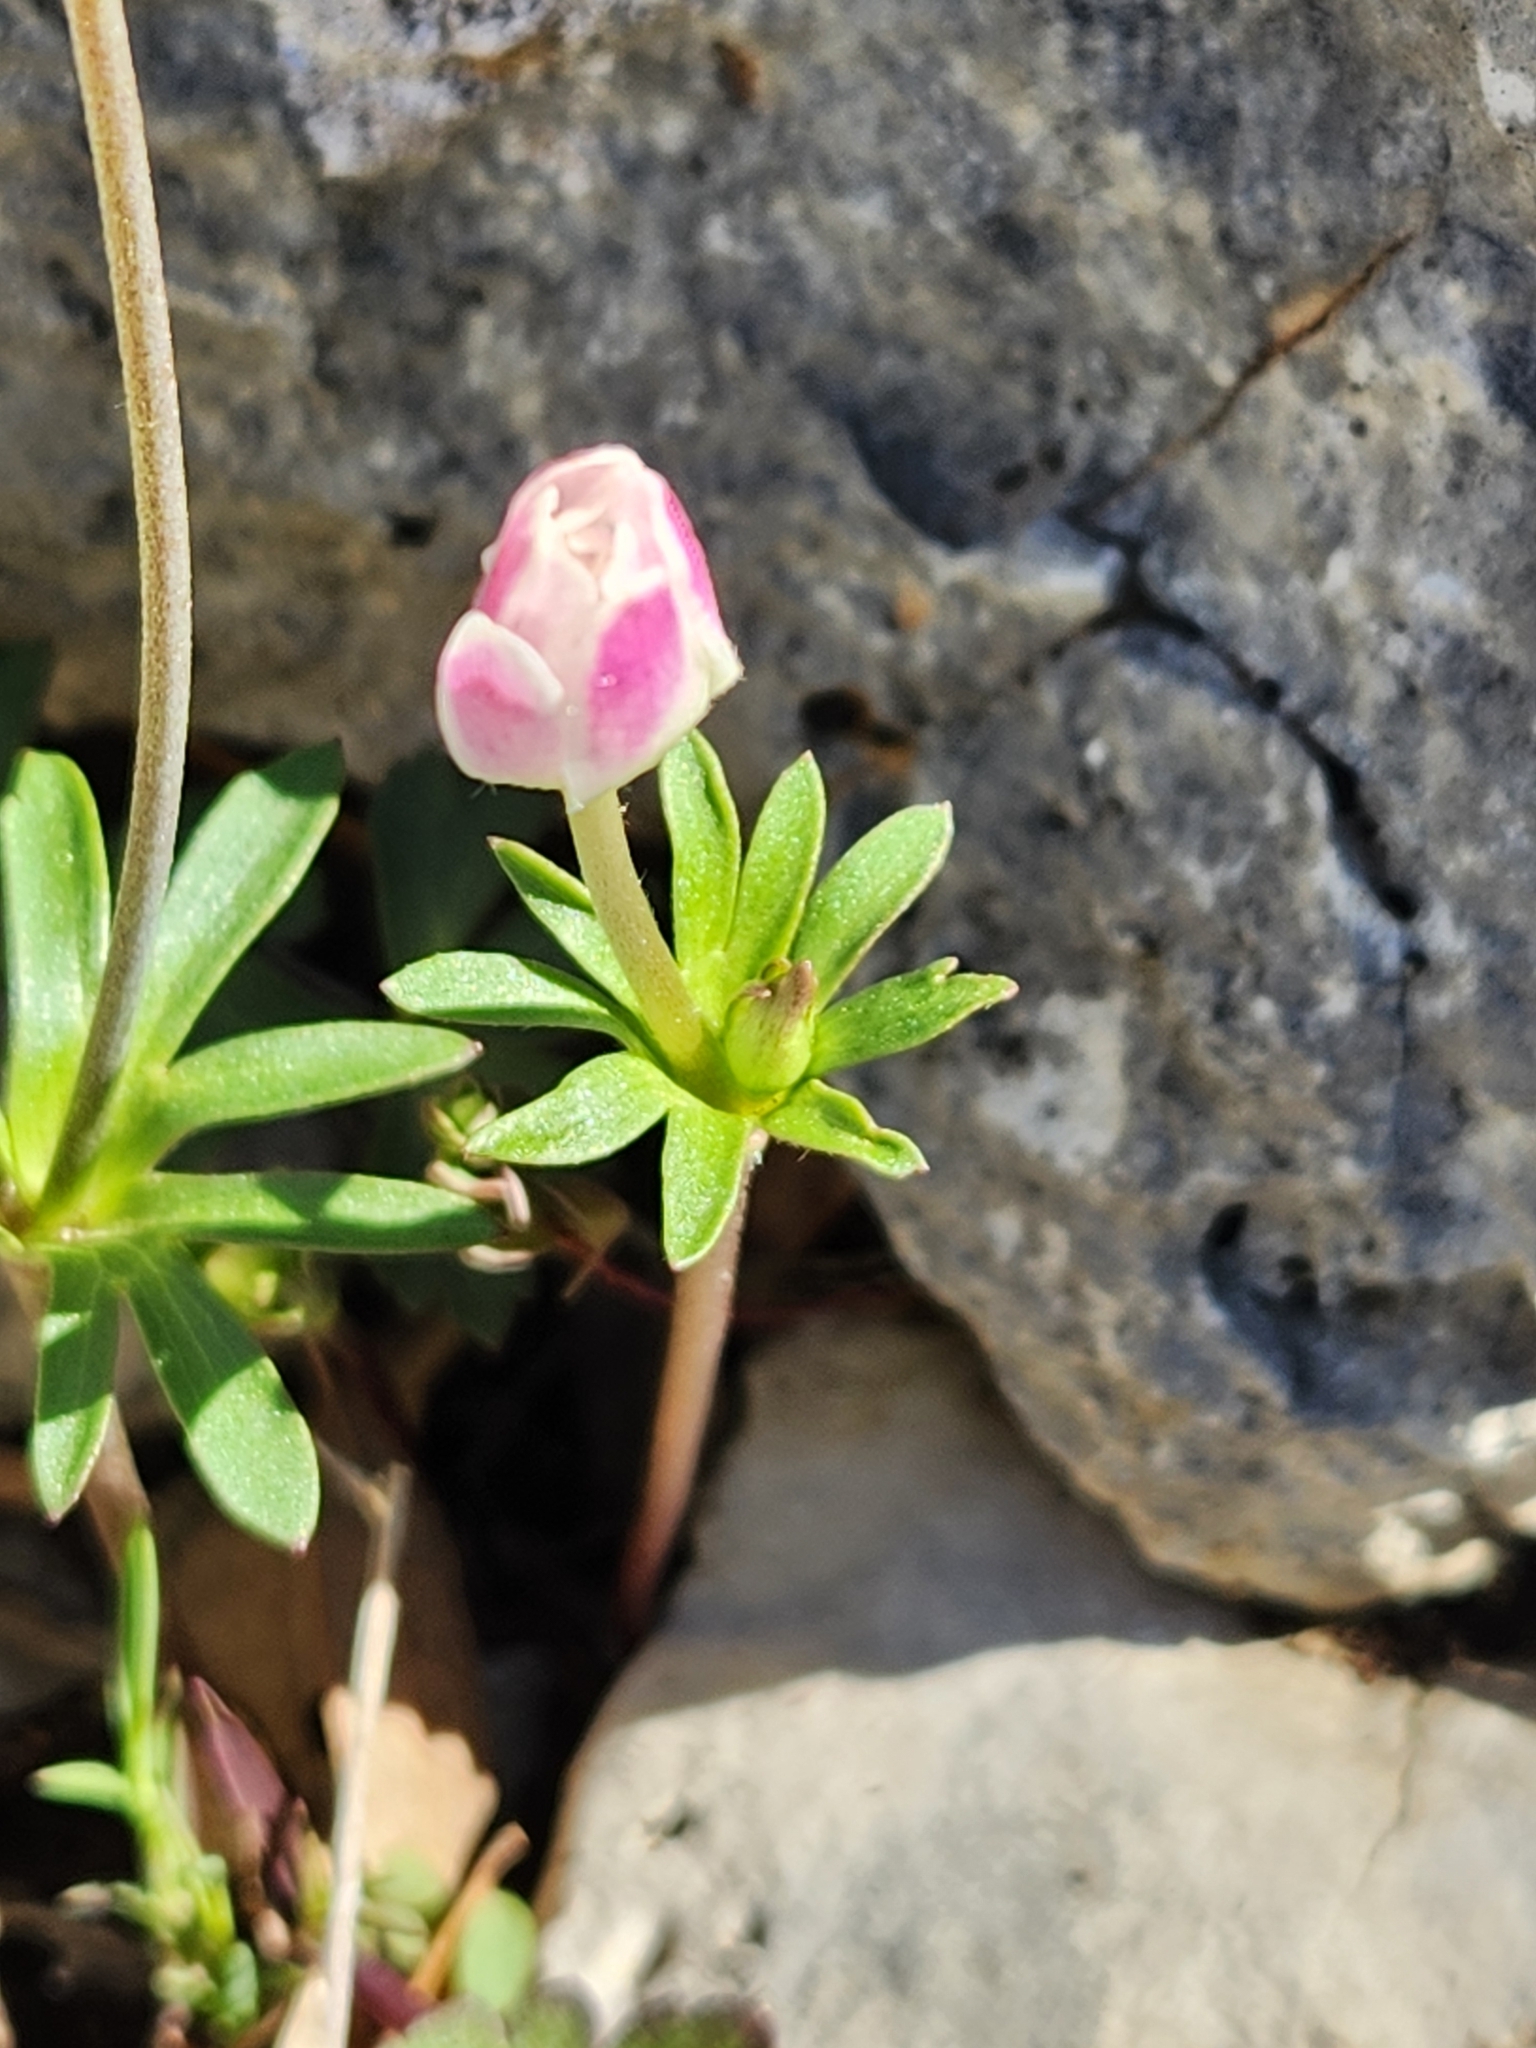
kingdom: Plantae
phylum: Tracheophyta
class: Magnoliopsida
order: Ranunculales
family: Ranunculaceae
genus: Anemone
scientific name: Anemone edwardsiana
